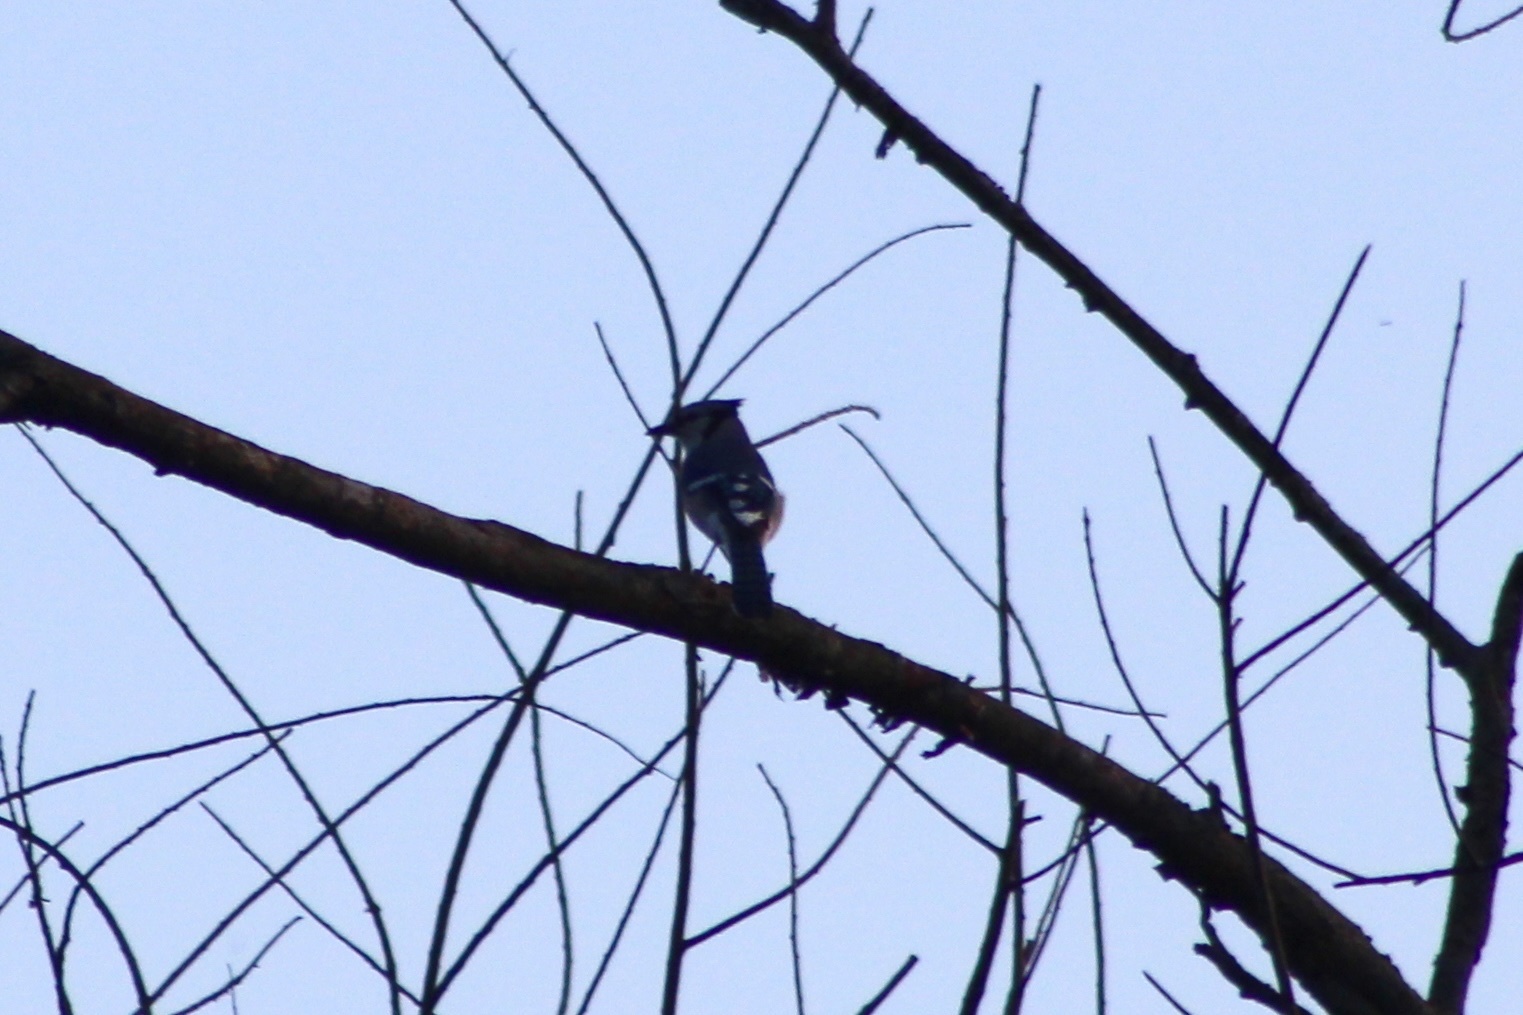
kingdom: Animalia
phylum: Chordata
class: Aves
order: Passeriformes
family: Corvidae
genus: Cyanocitta
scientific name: Cyanocitta cristata
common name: Blue jay
